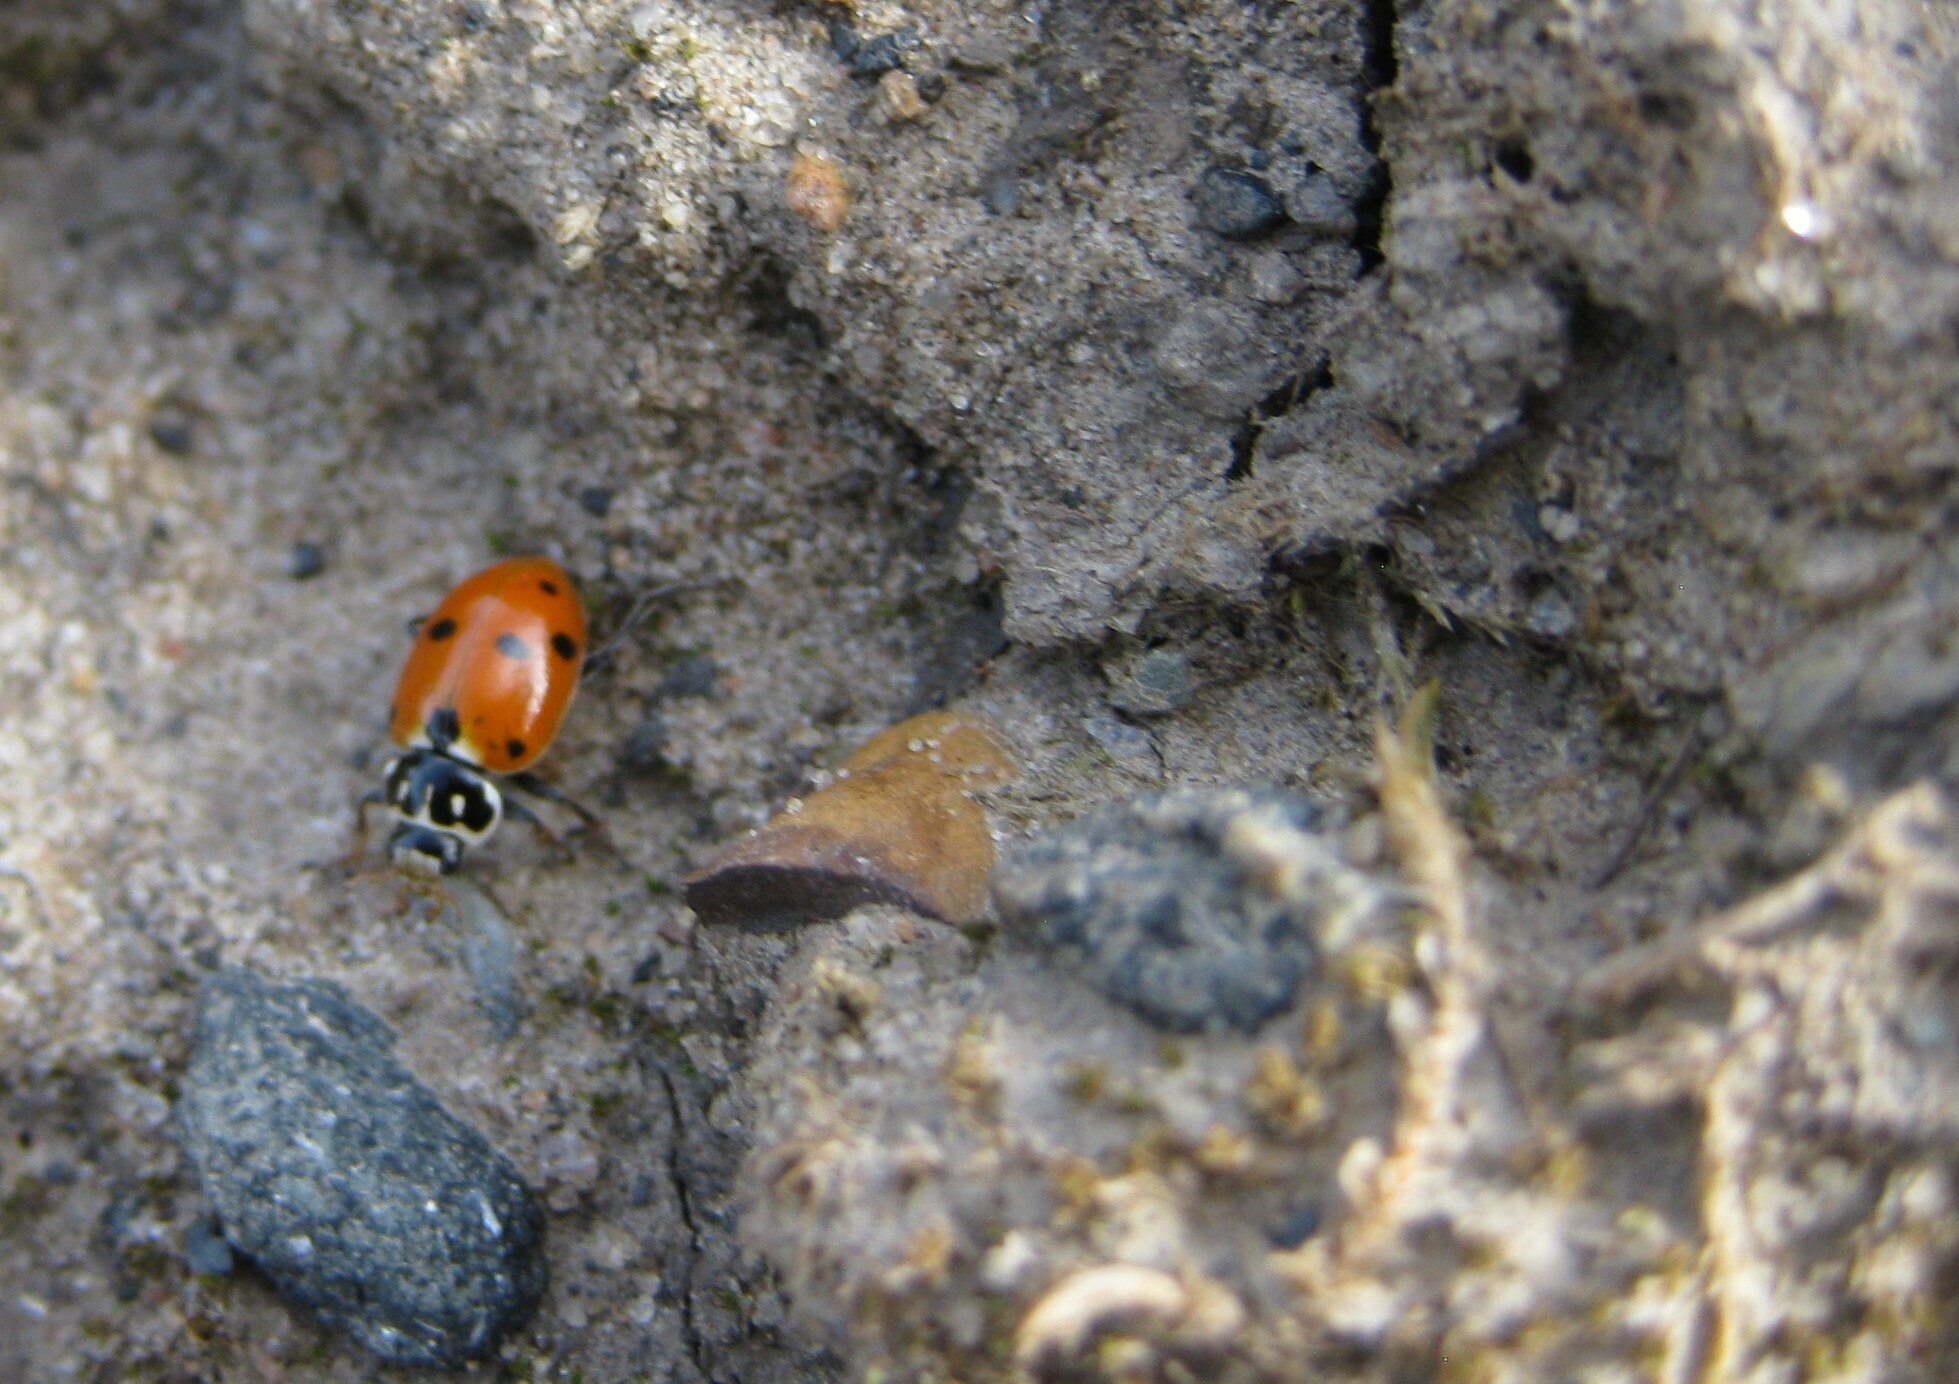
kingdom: Animalia
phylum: Arthropoda
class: Insecta
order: Coleoptera
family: Coccinellidae
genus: Hippodamia
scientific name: Hippodamia variegata
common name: Ladybird beetle
